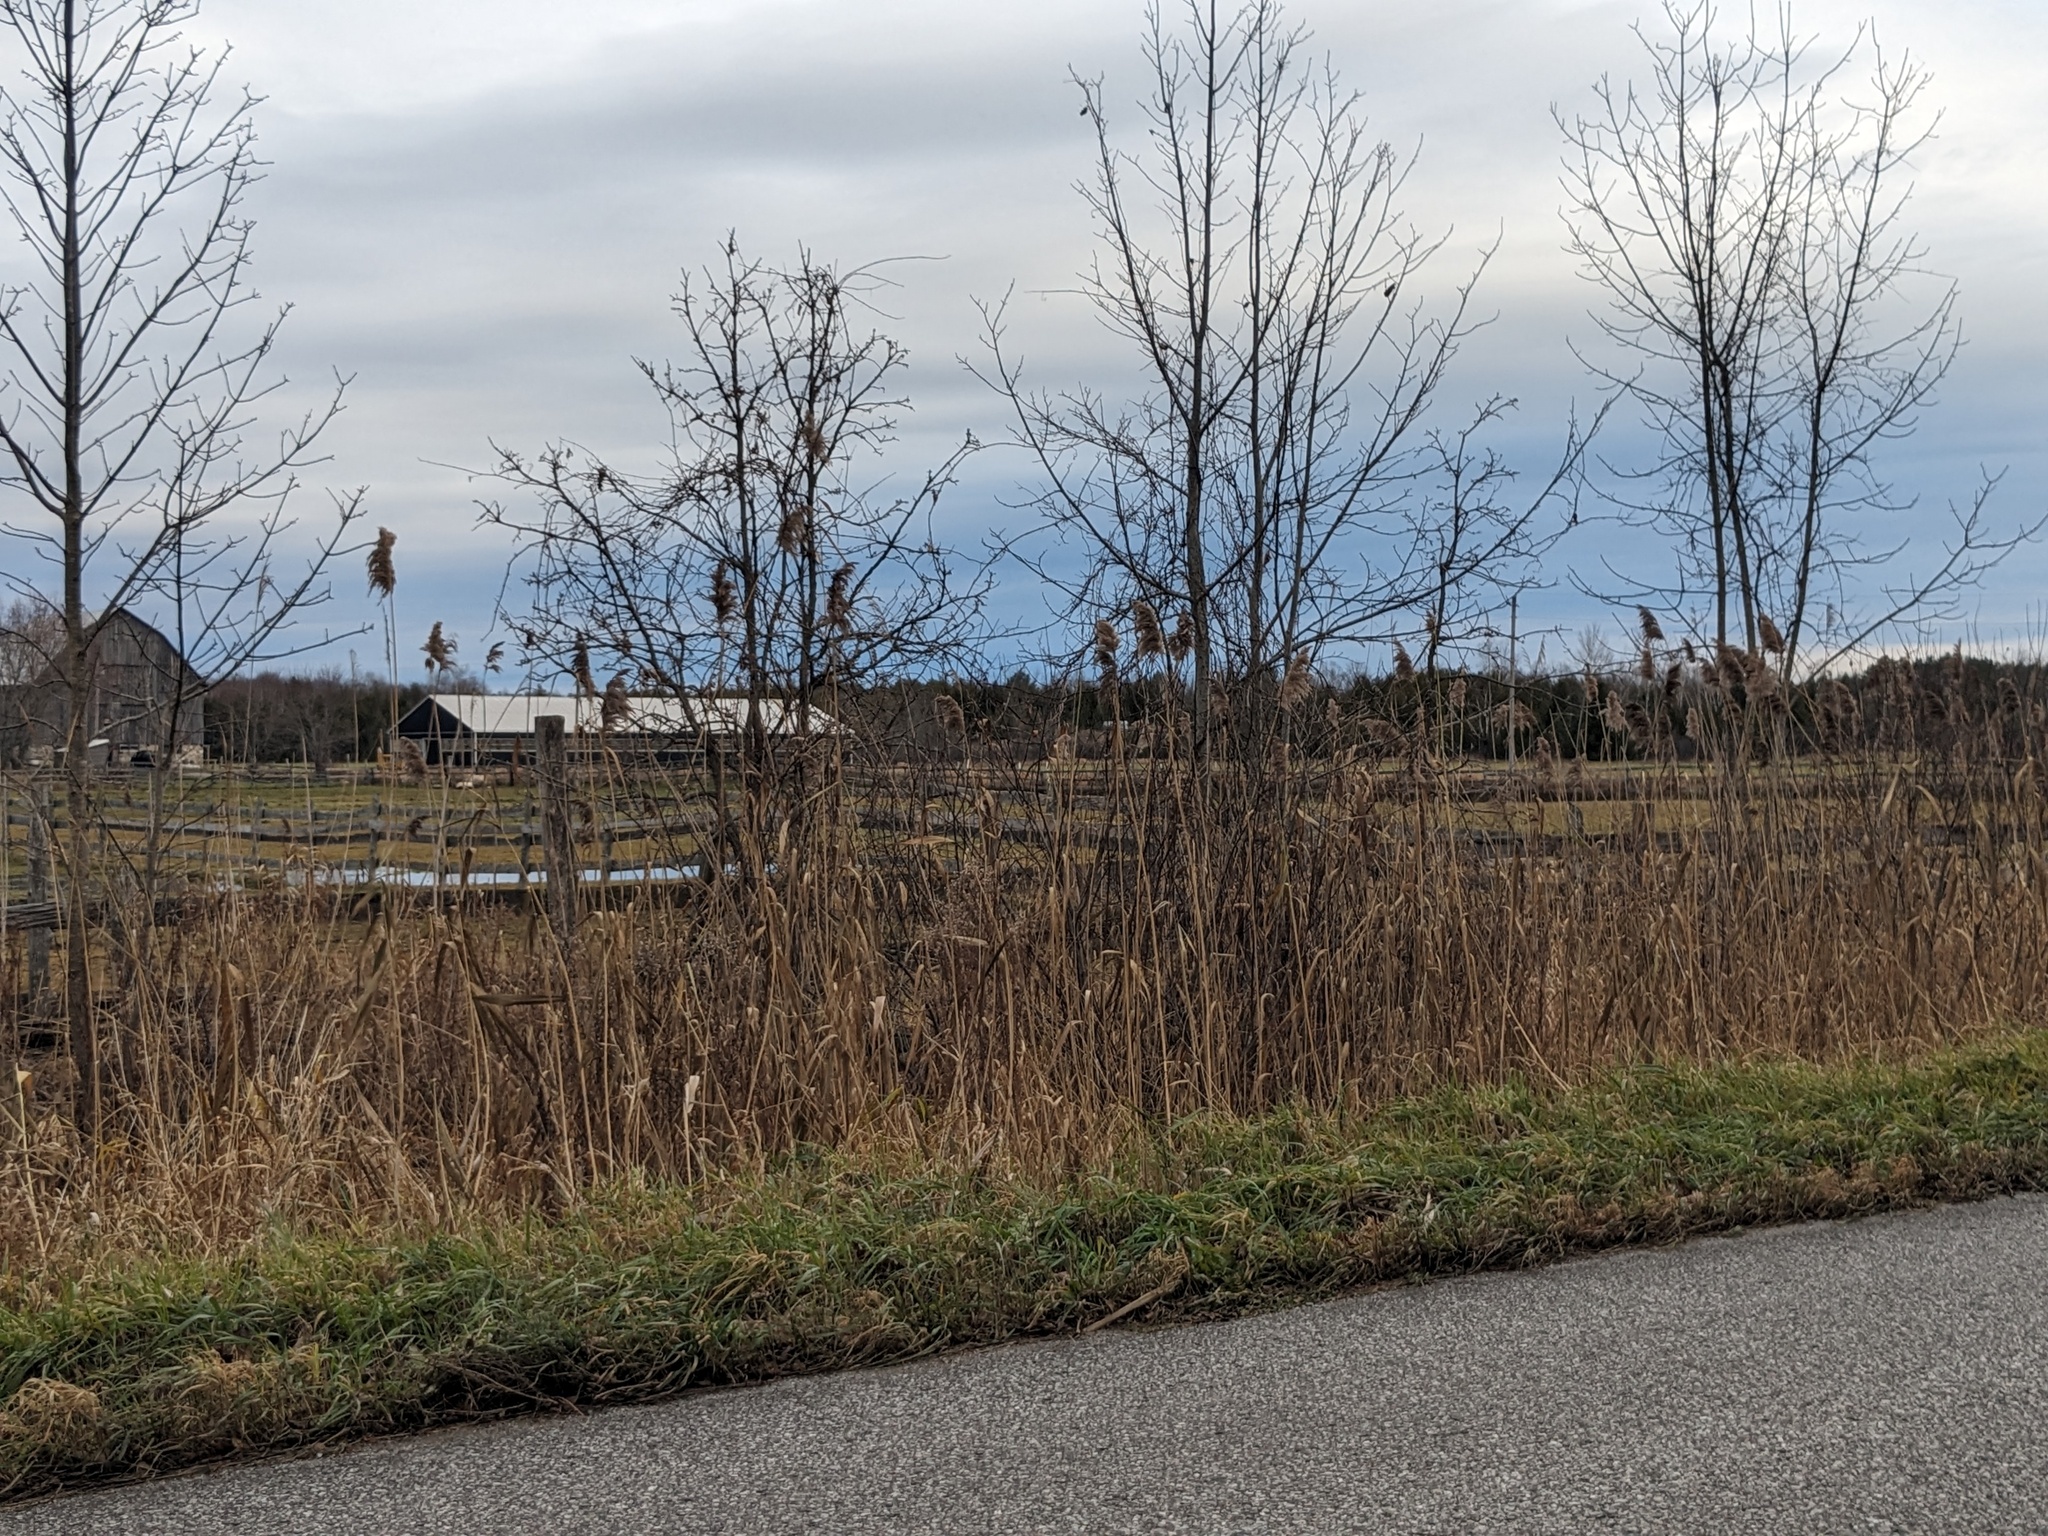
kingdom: Plantae
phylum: Tracheophyta
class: Liliopsida
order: Poales
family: Poaceae
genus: Phragmites
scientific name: Phragmites australis
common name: Common reed
